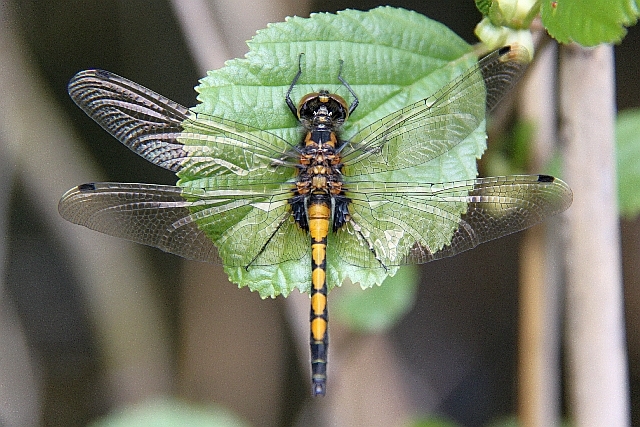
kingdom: Animalia
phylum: Arthropoda
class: Insecta
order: Odonata
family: Libellulidae
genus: Leucorrhinia
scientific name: Leucorrhinia pectoralis
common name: Yellow-spotted whiteface
